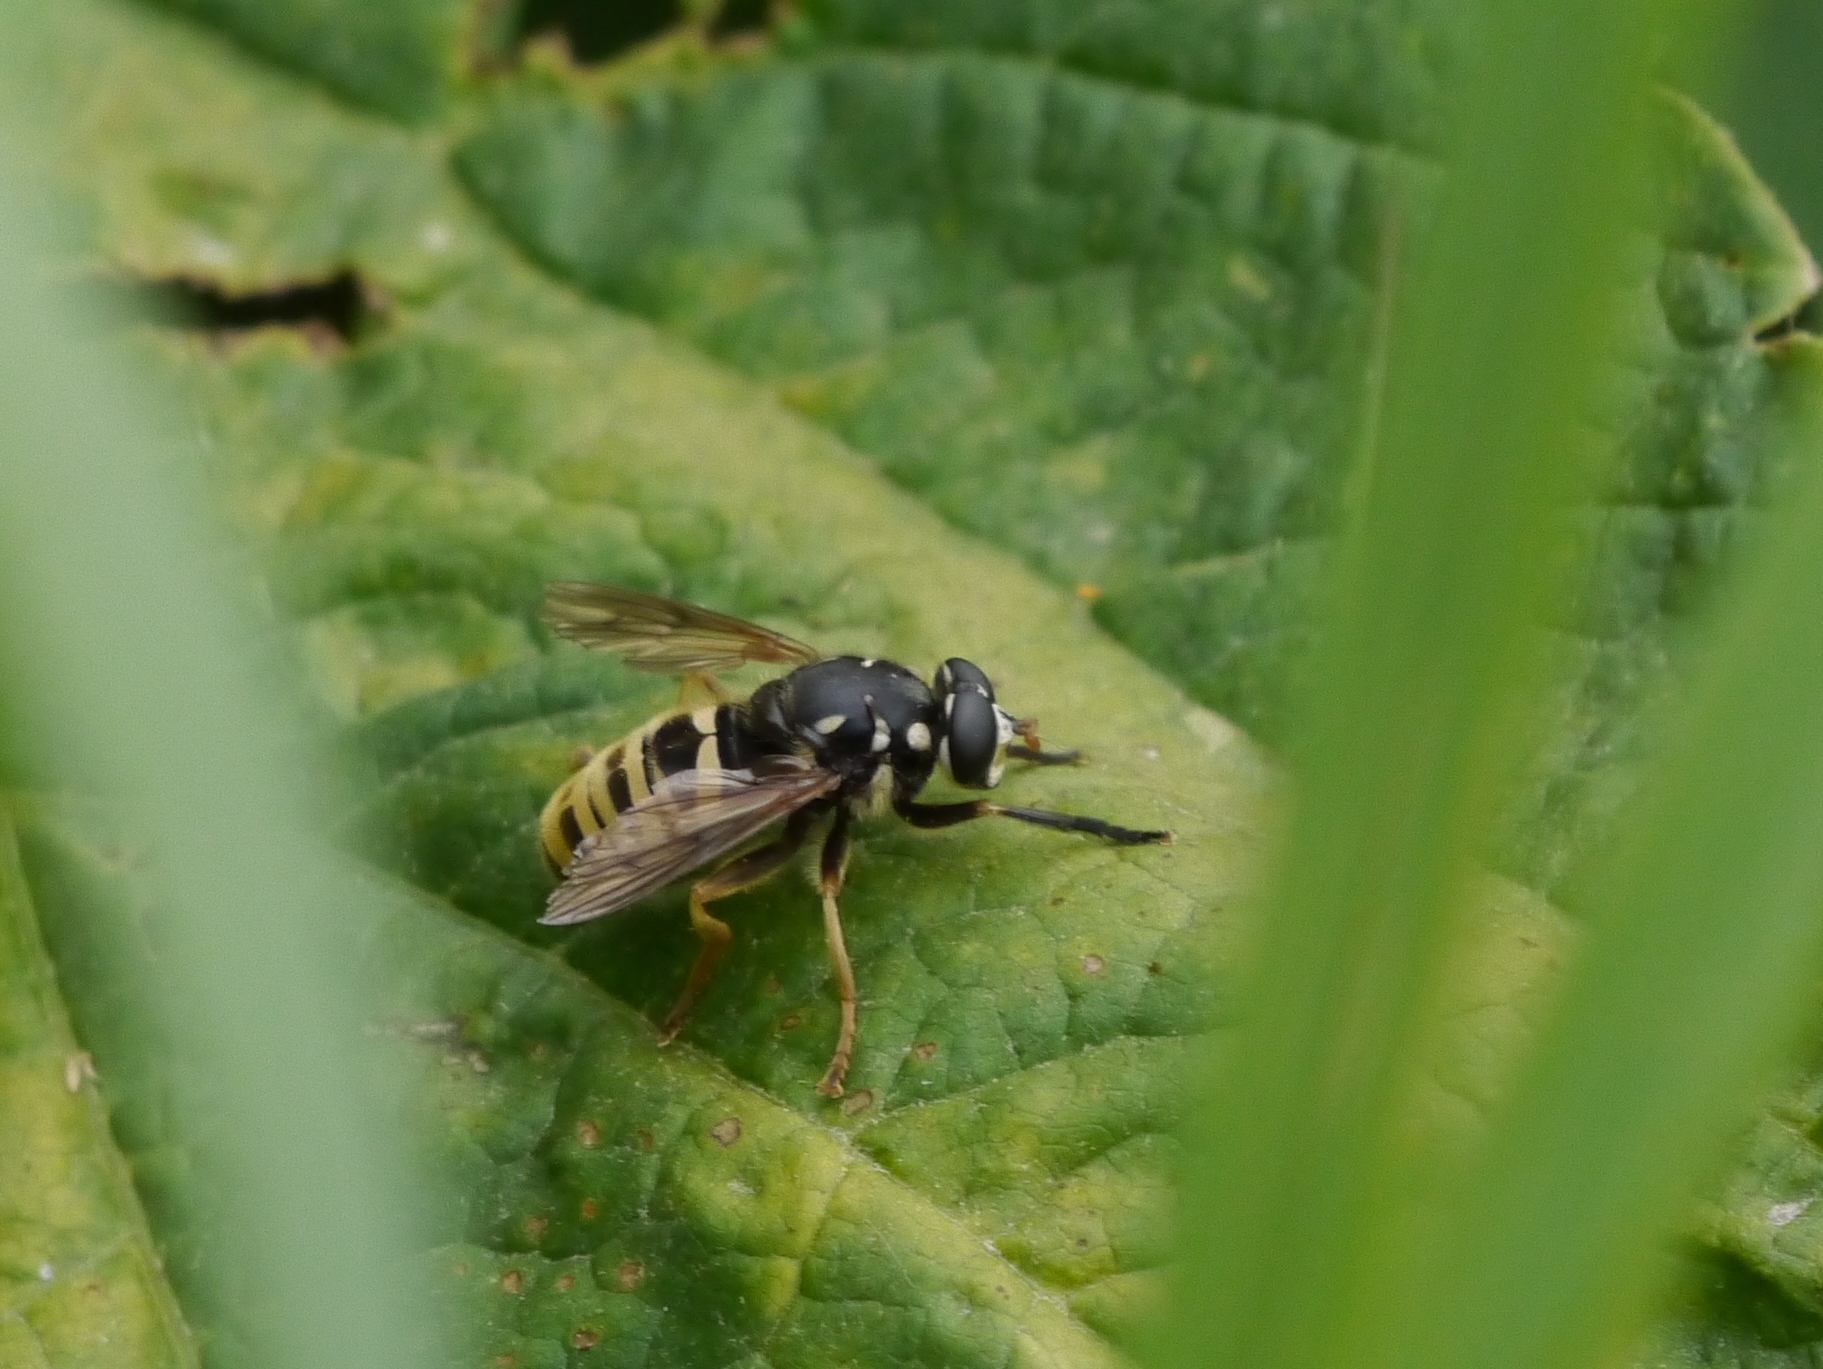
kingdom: Animalia
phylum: Arthropoda
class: Insecta
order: Diptera
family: Syrphidae
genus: Temnostoma
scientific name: Temnostoma excentricum
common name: Black-spotted falsehorn
